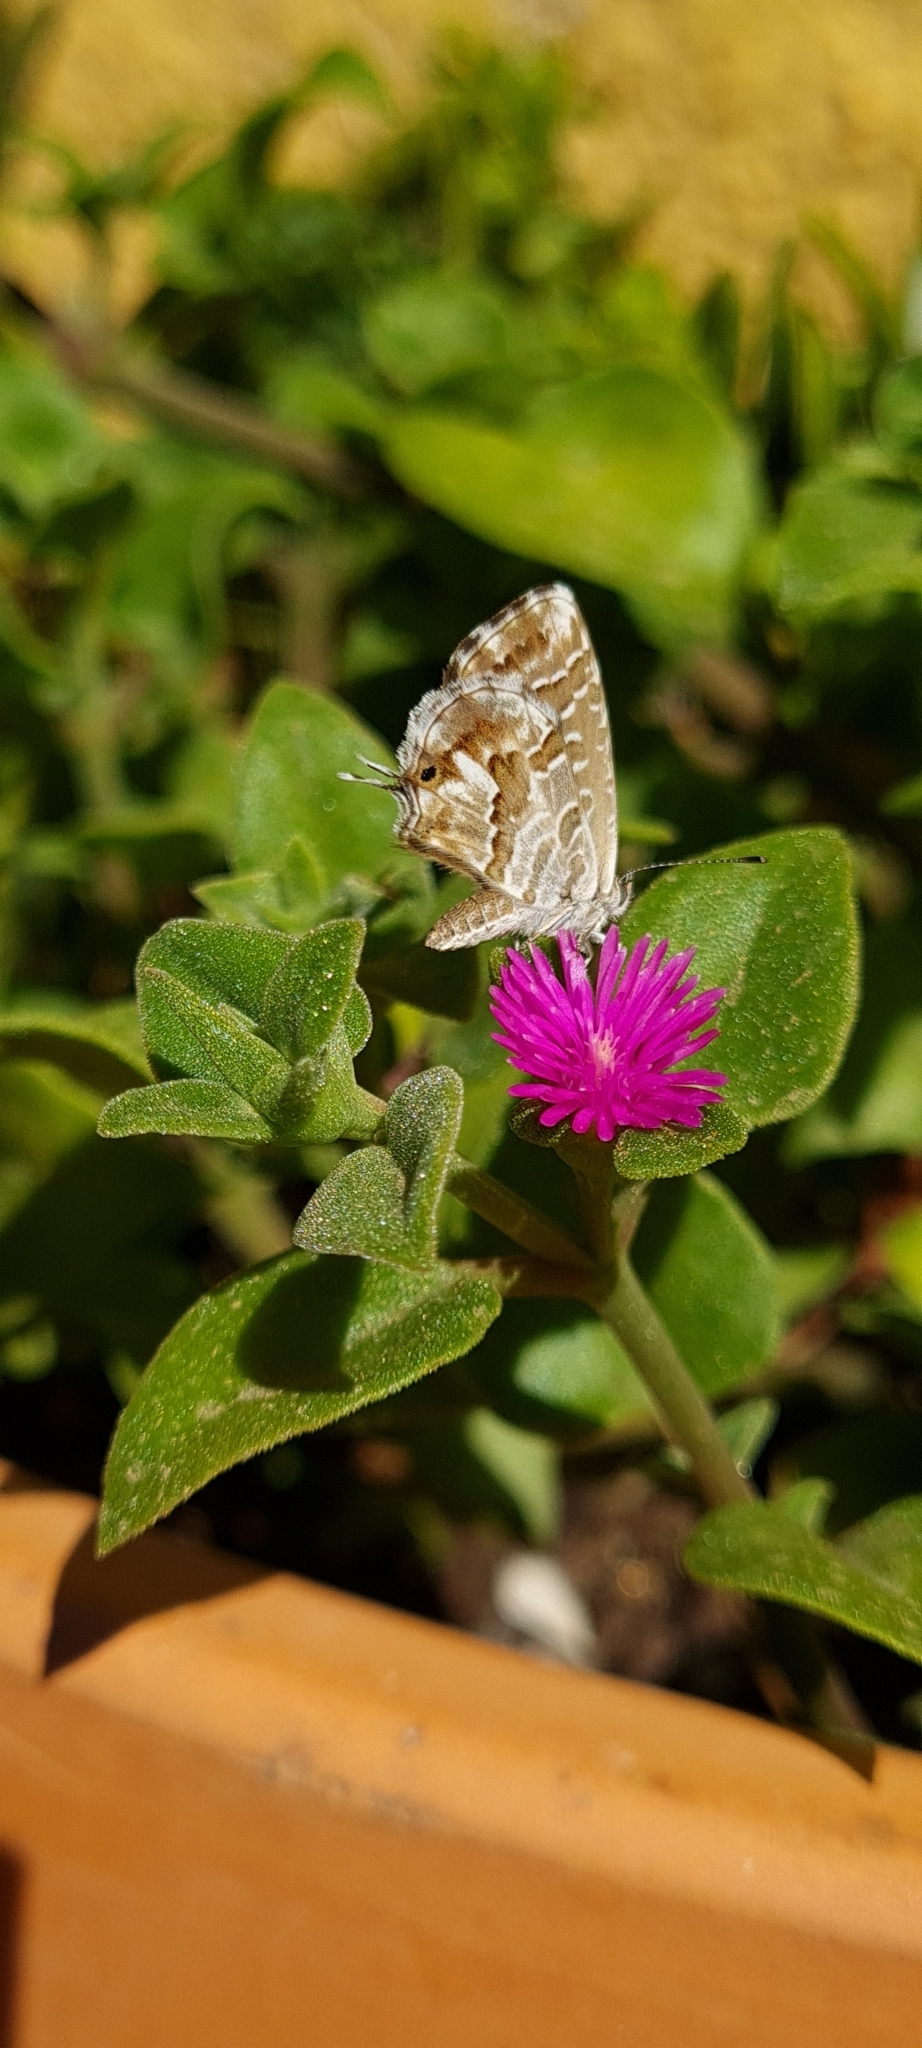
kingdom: Animalia
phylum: Arthropoda
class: Insecta
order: Lepidoptera
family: Lycaenidae
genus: Cacyreus
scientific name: Cacyreus marshalli
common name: Geranium bronze
